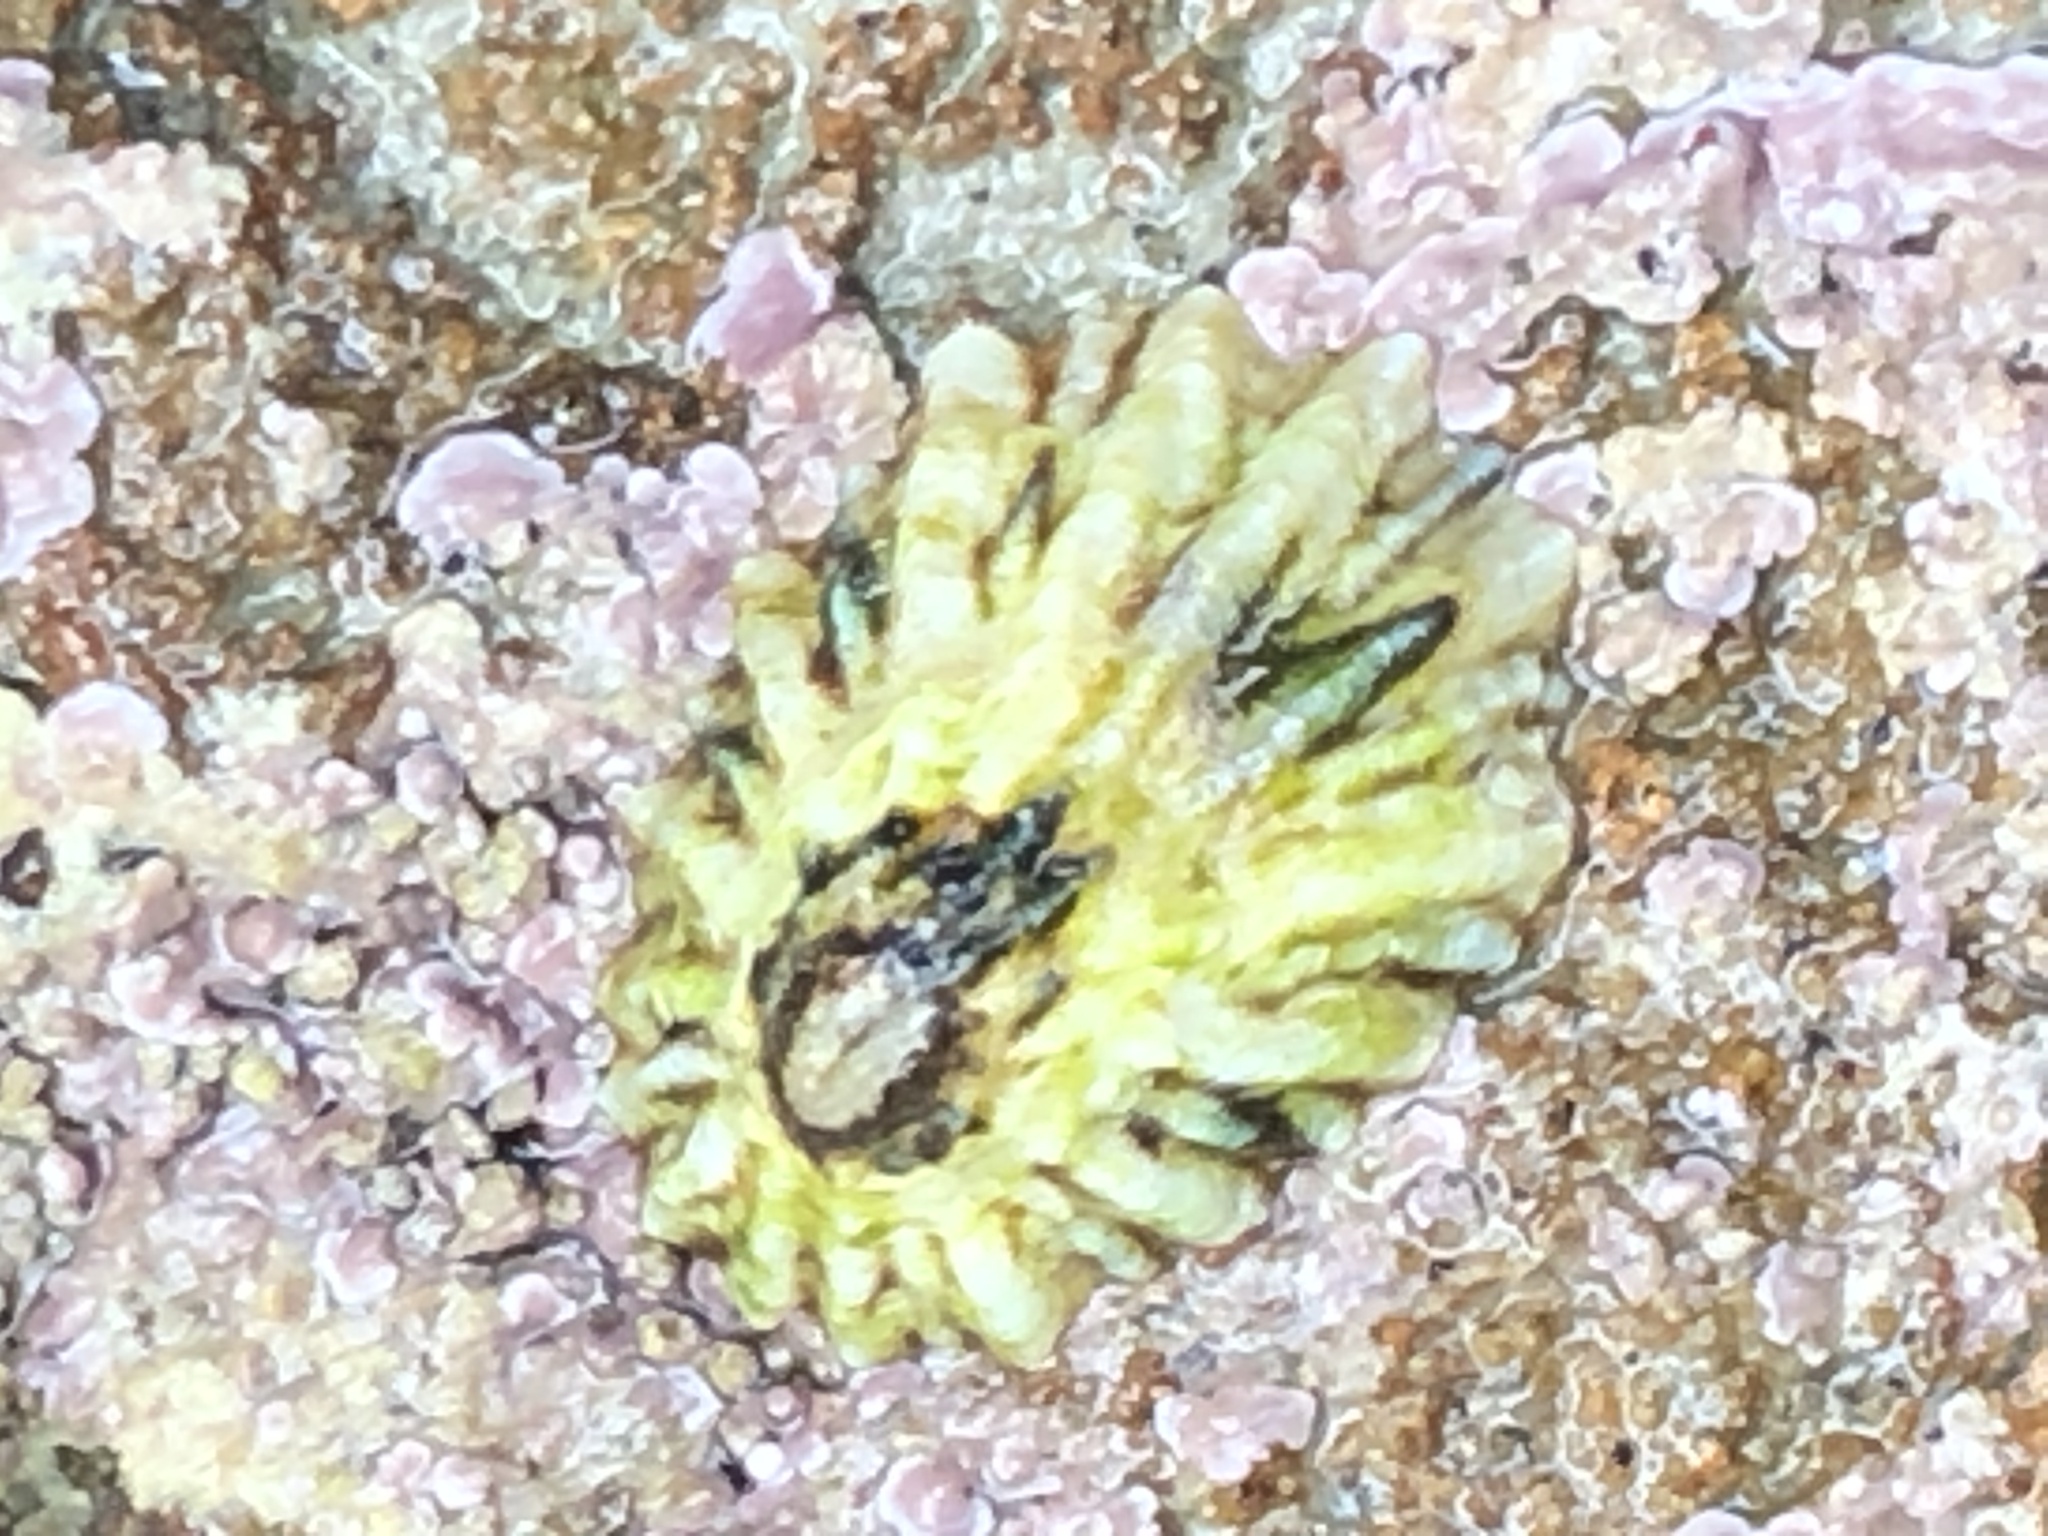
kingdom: Animalia
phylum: Mollusca
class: Gastropoda
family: Lottiidae
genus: Lottia
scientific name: Lottia scabra
